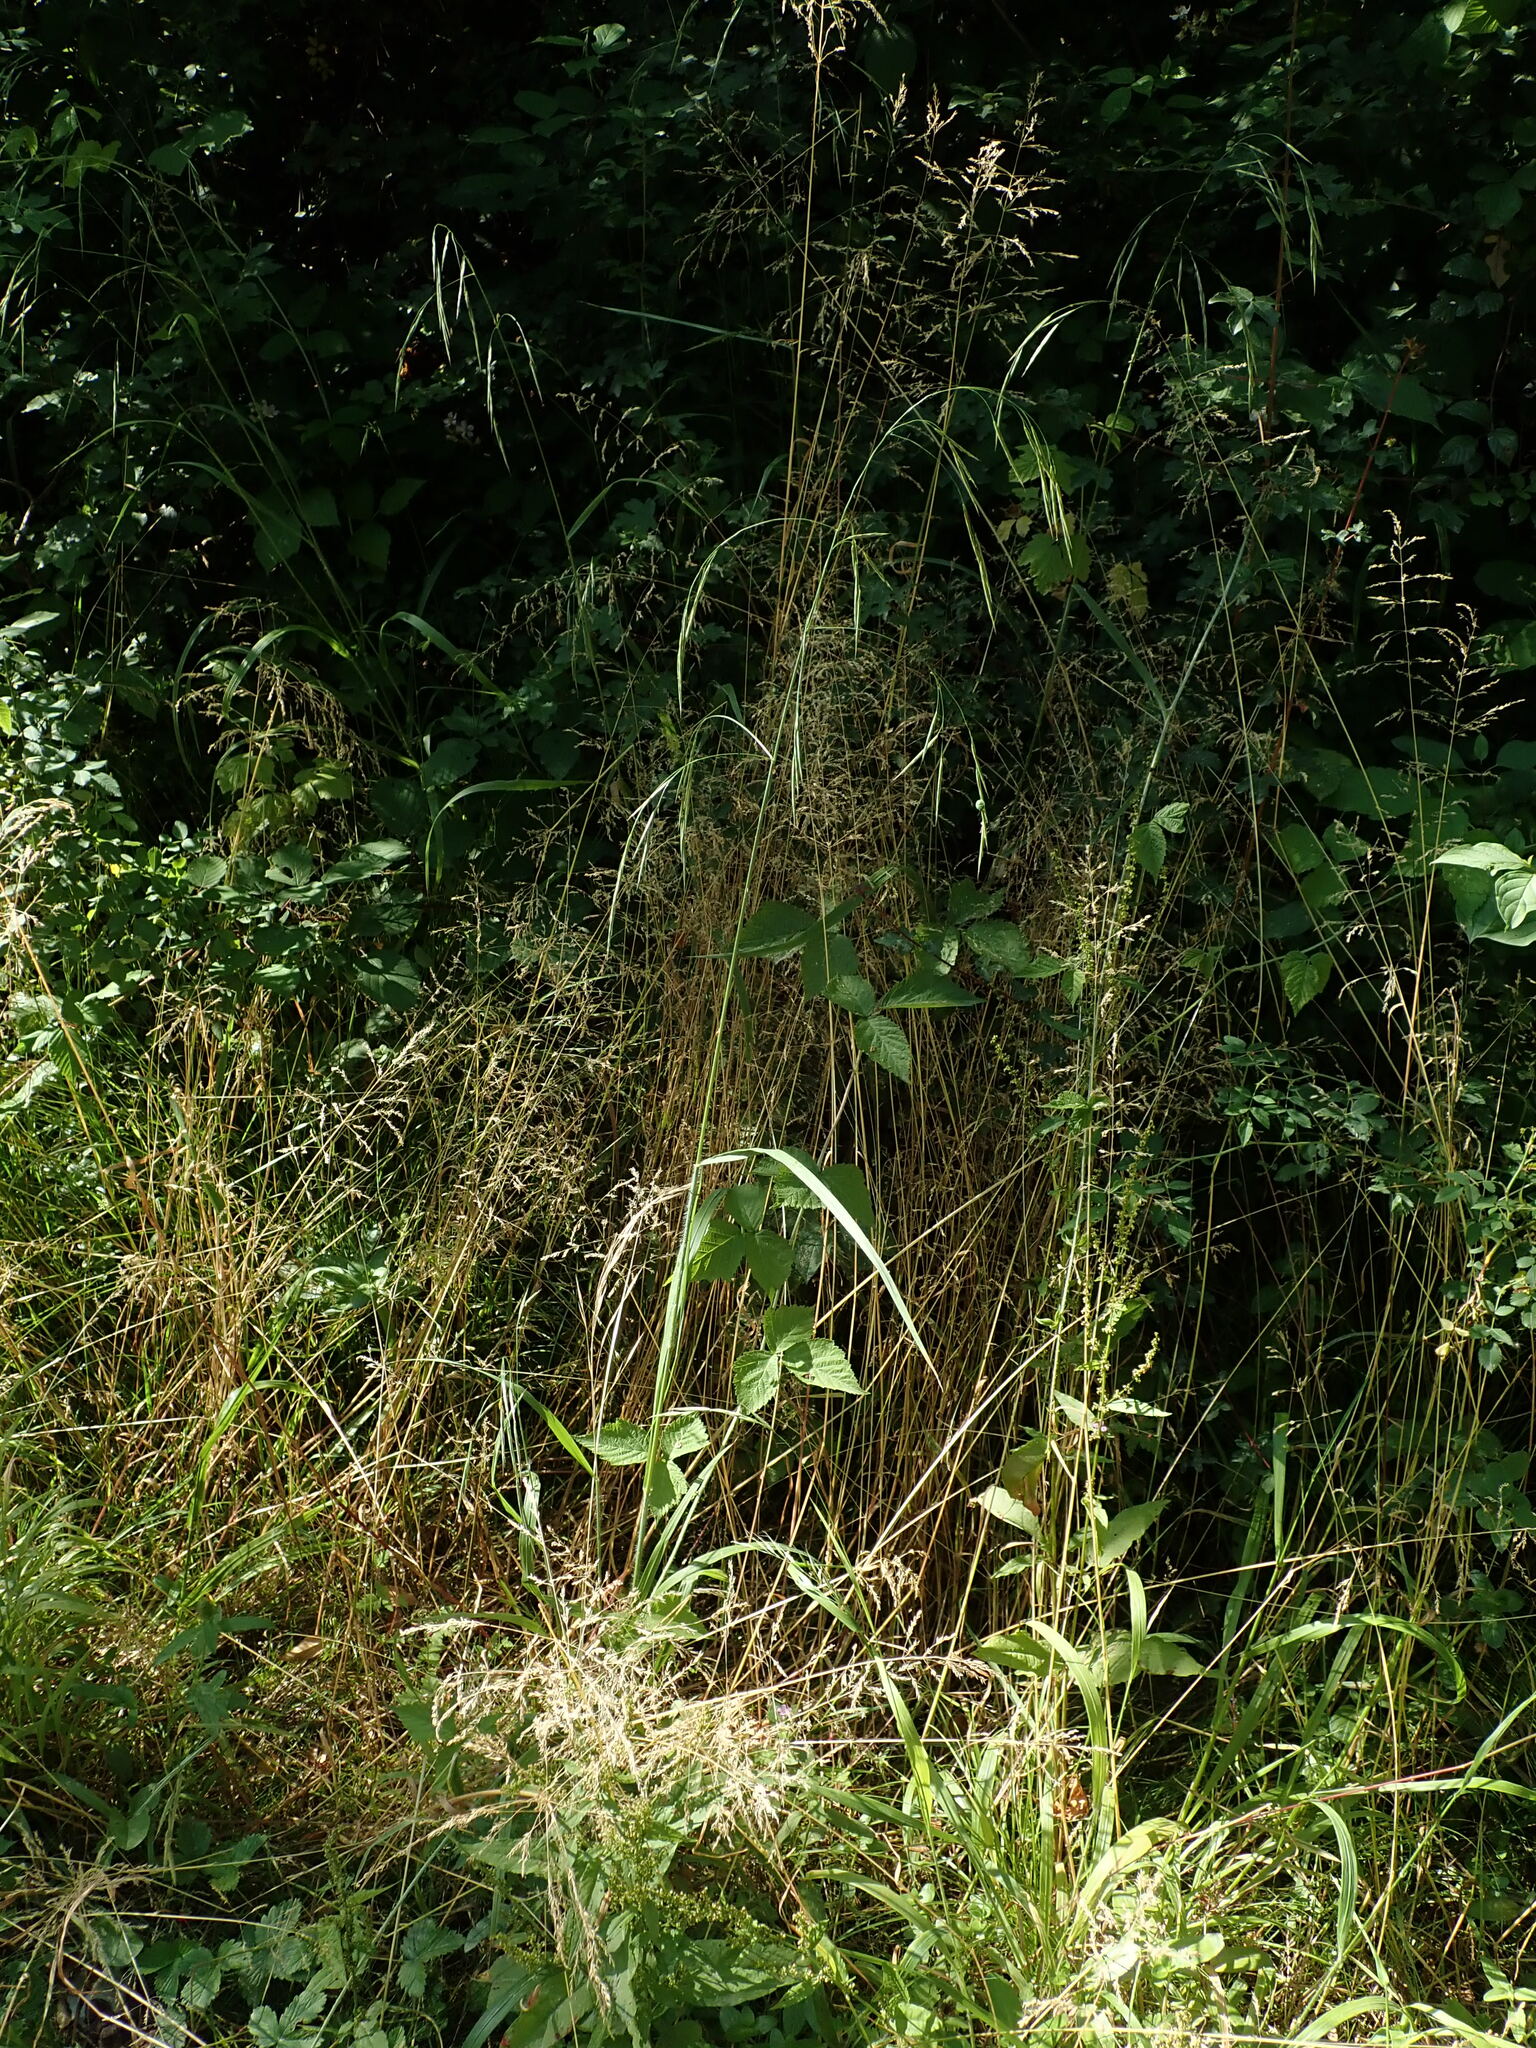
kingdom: Plantae
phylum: Tracheophyta
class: Liliopsida
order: Poales
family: Poaceae
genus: Bromus
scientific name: Bromus ramosus
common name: Hairy brome
